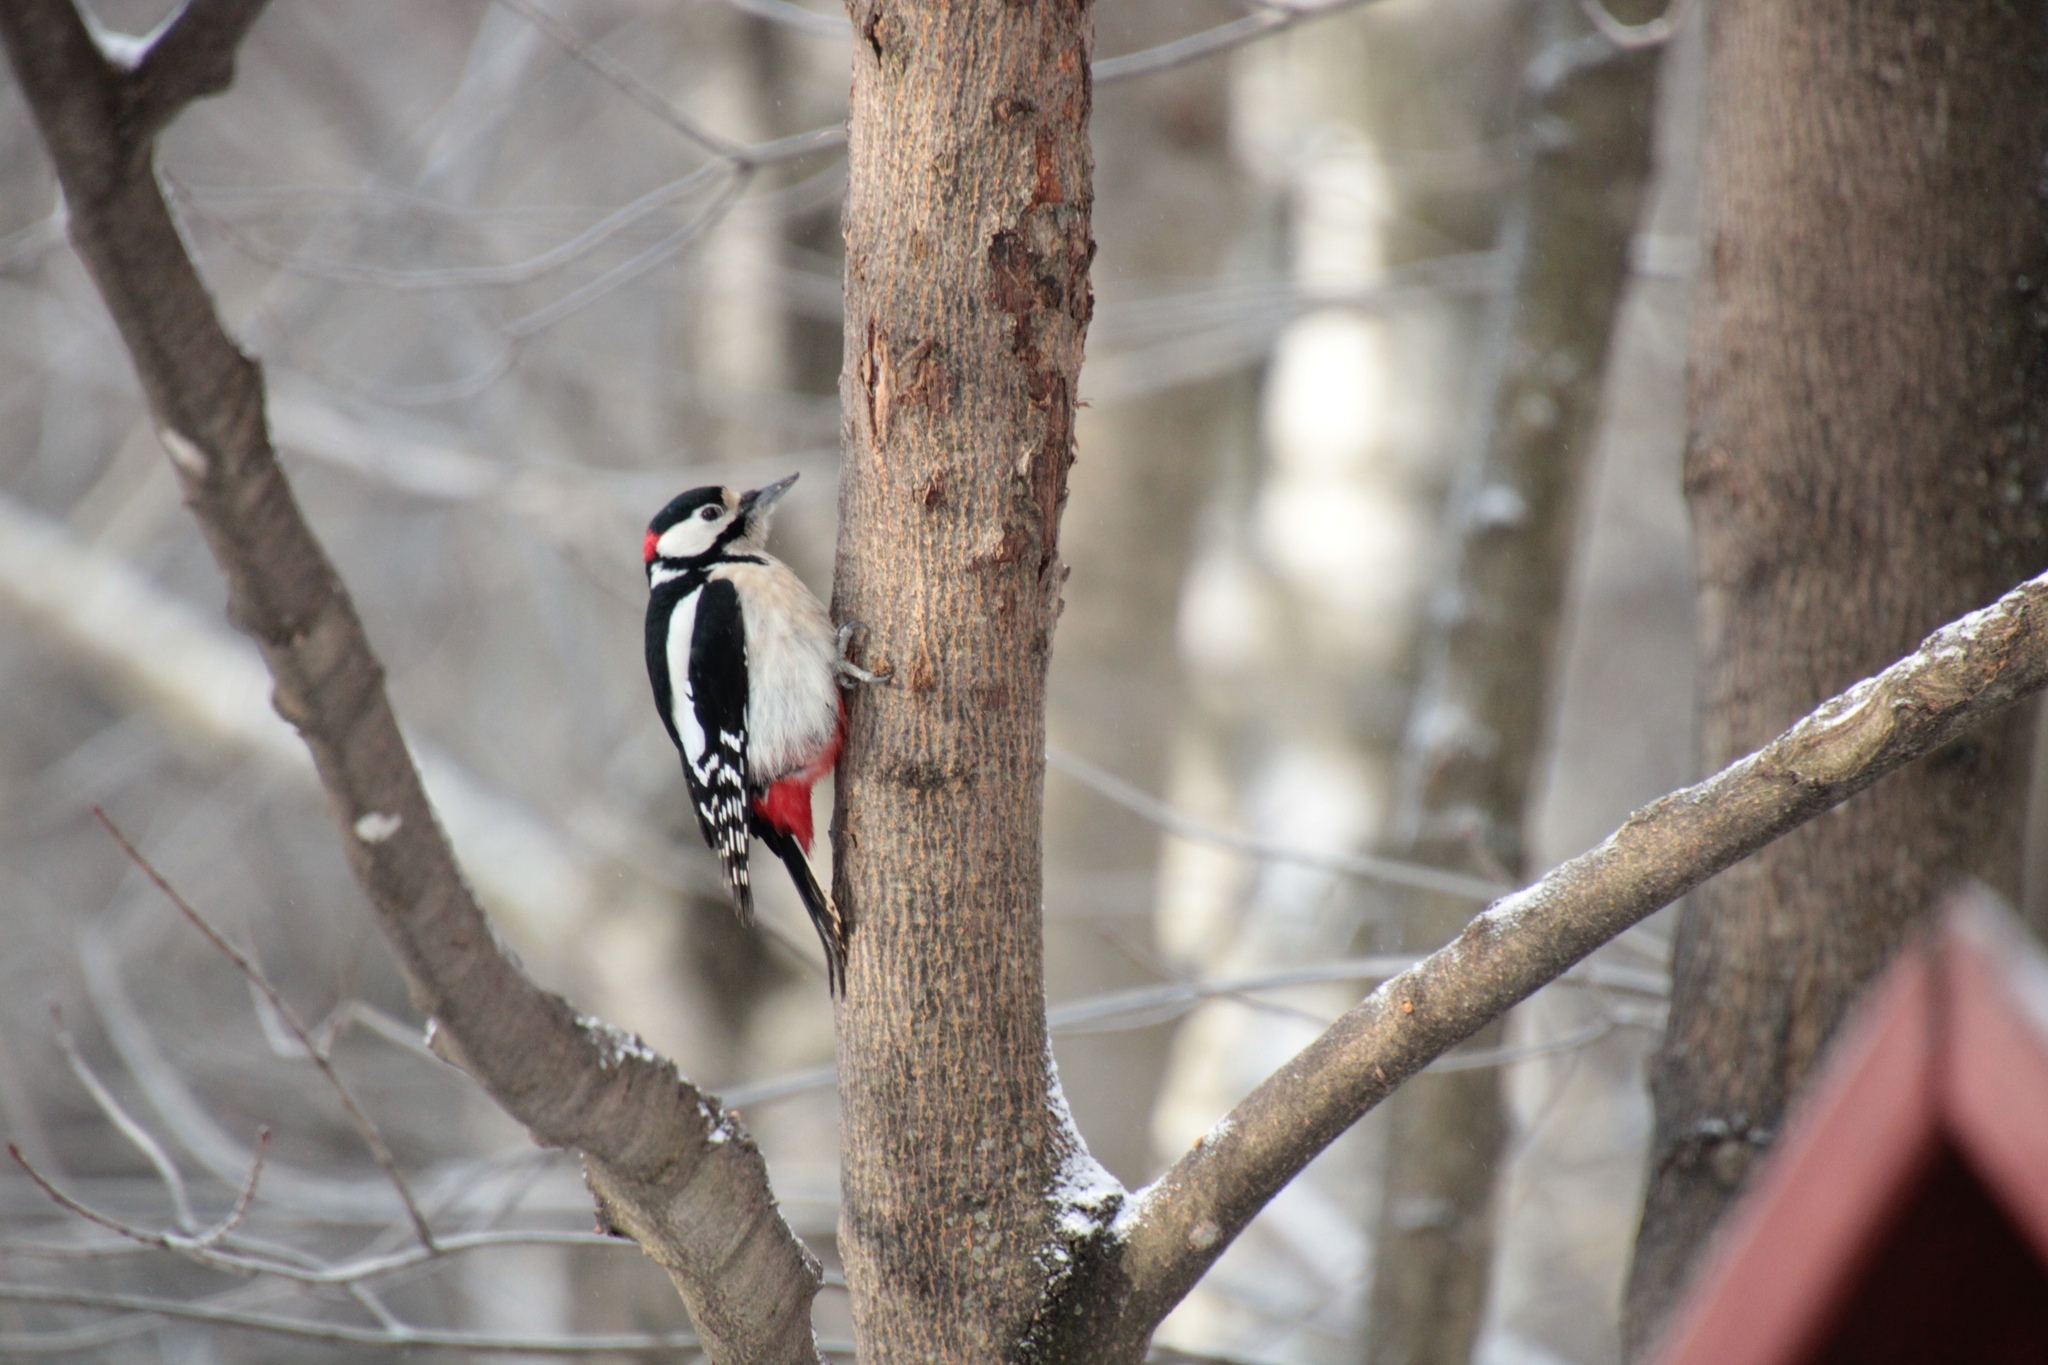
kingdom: Animalia
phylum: Chordata
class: Aves
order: Piciformes
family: Picidae
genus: Dendrocopos
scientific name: Dendrocopos major
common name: Great spotted woodpecker
